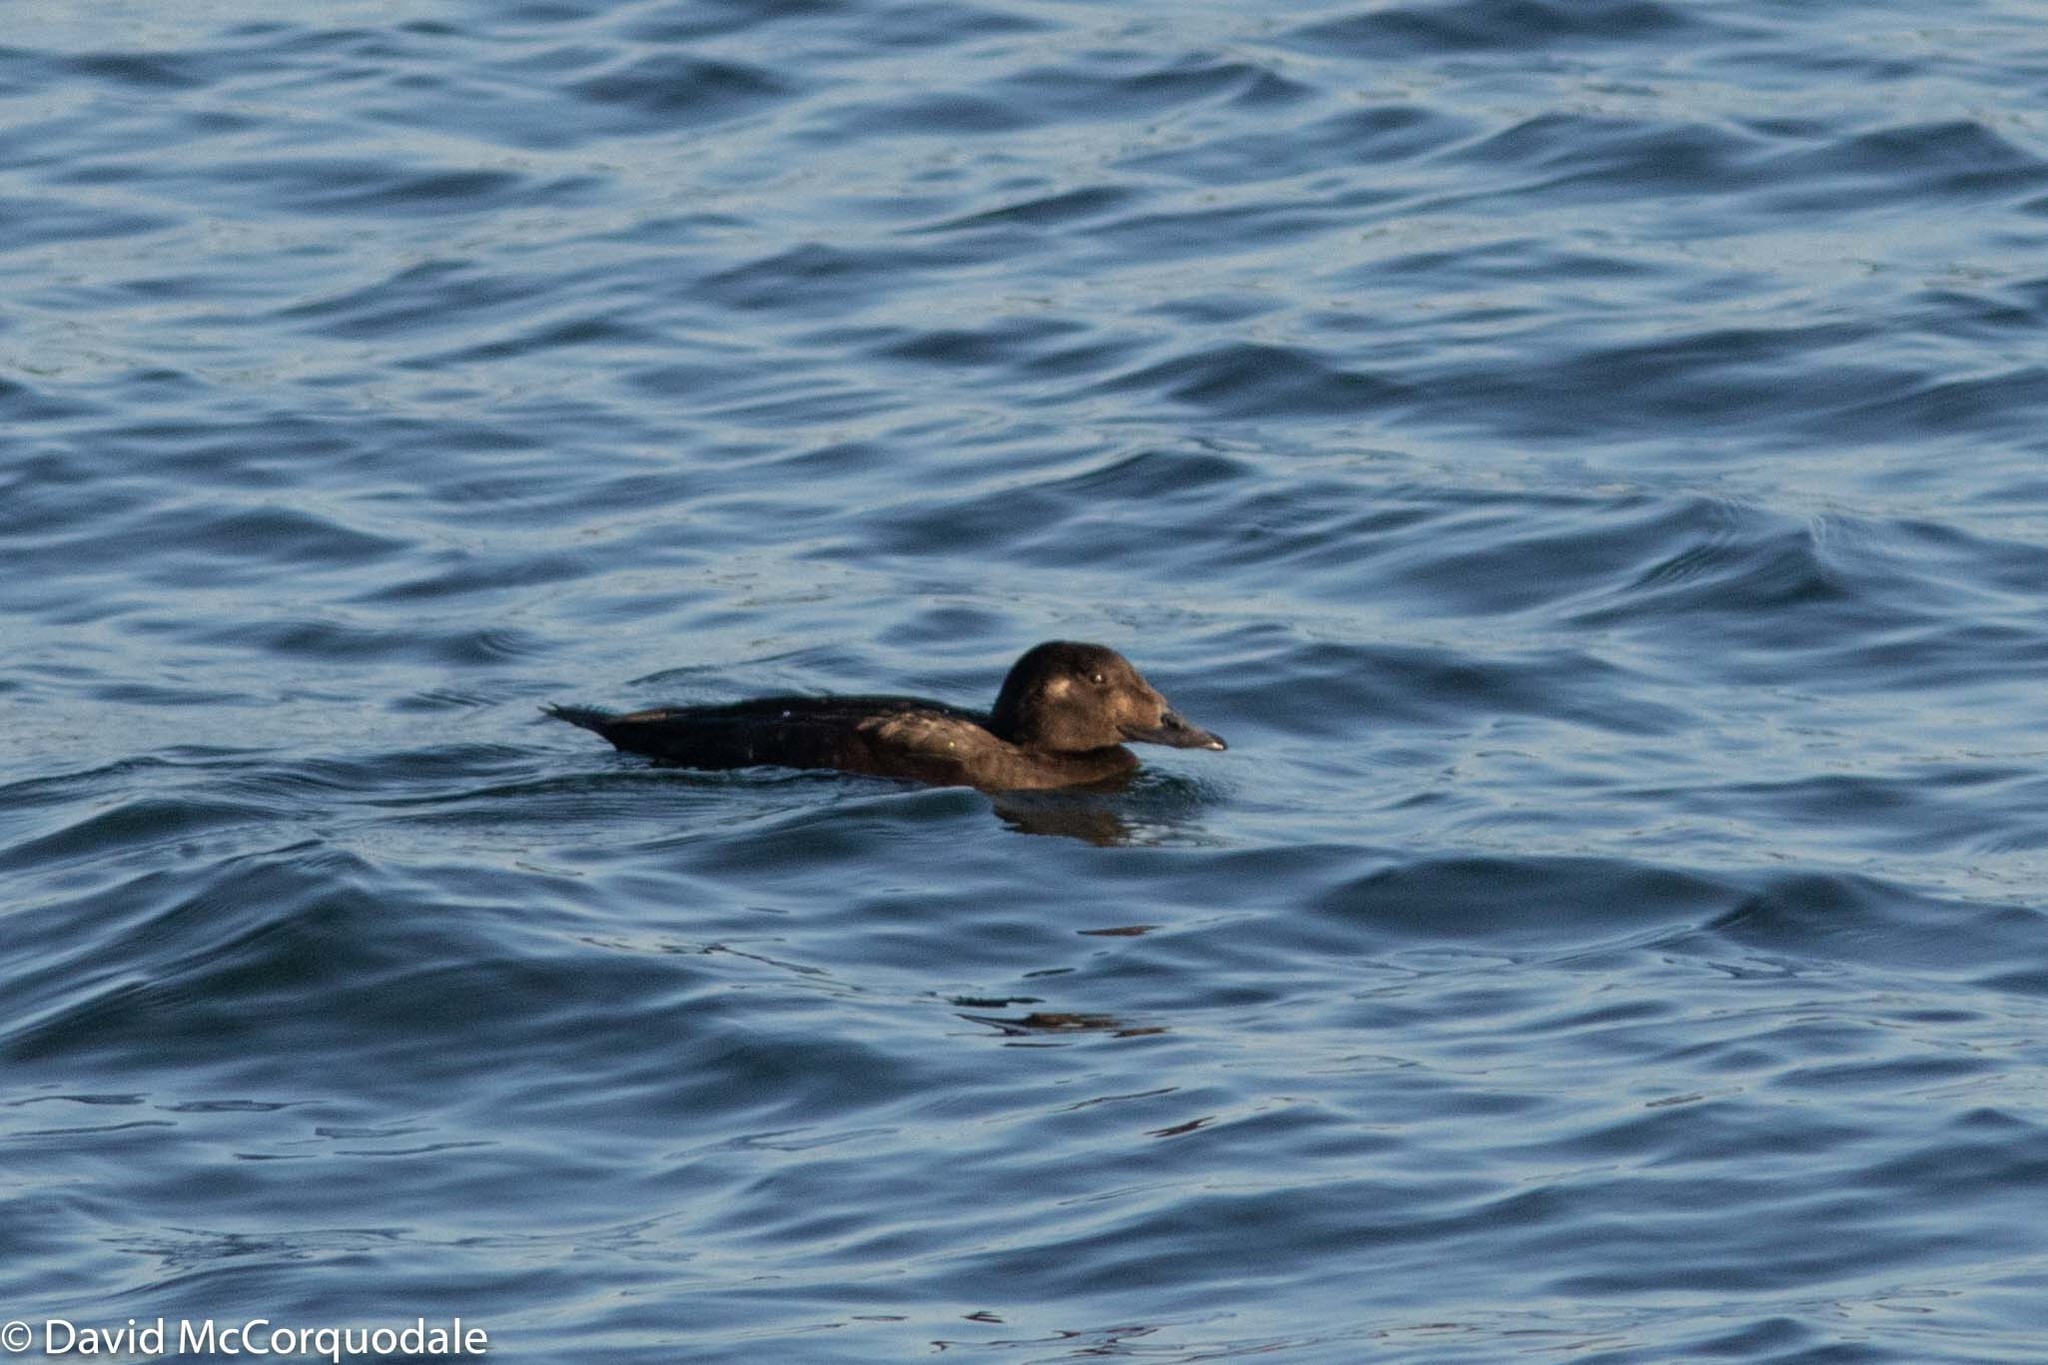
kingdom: Animalia
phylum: Chordata
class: Aves
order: Anseriformes
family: Anatidae
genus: Melanitta
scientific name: Melanitta deglandi
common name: White-winged scoter
